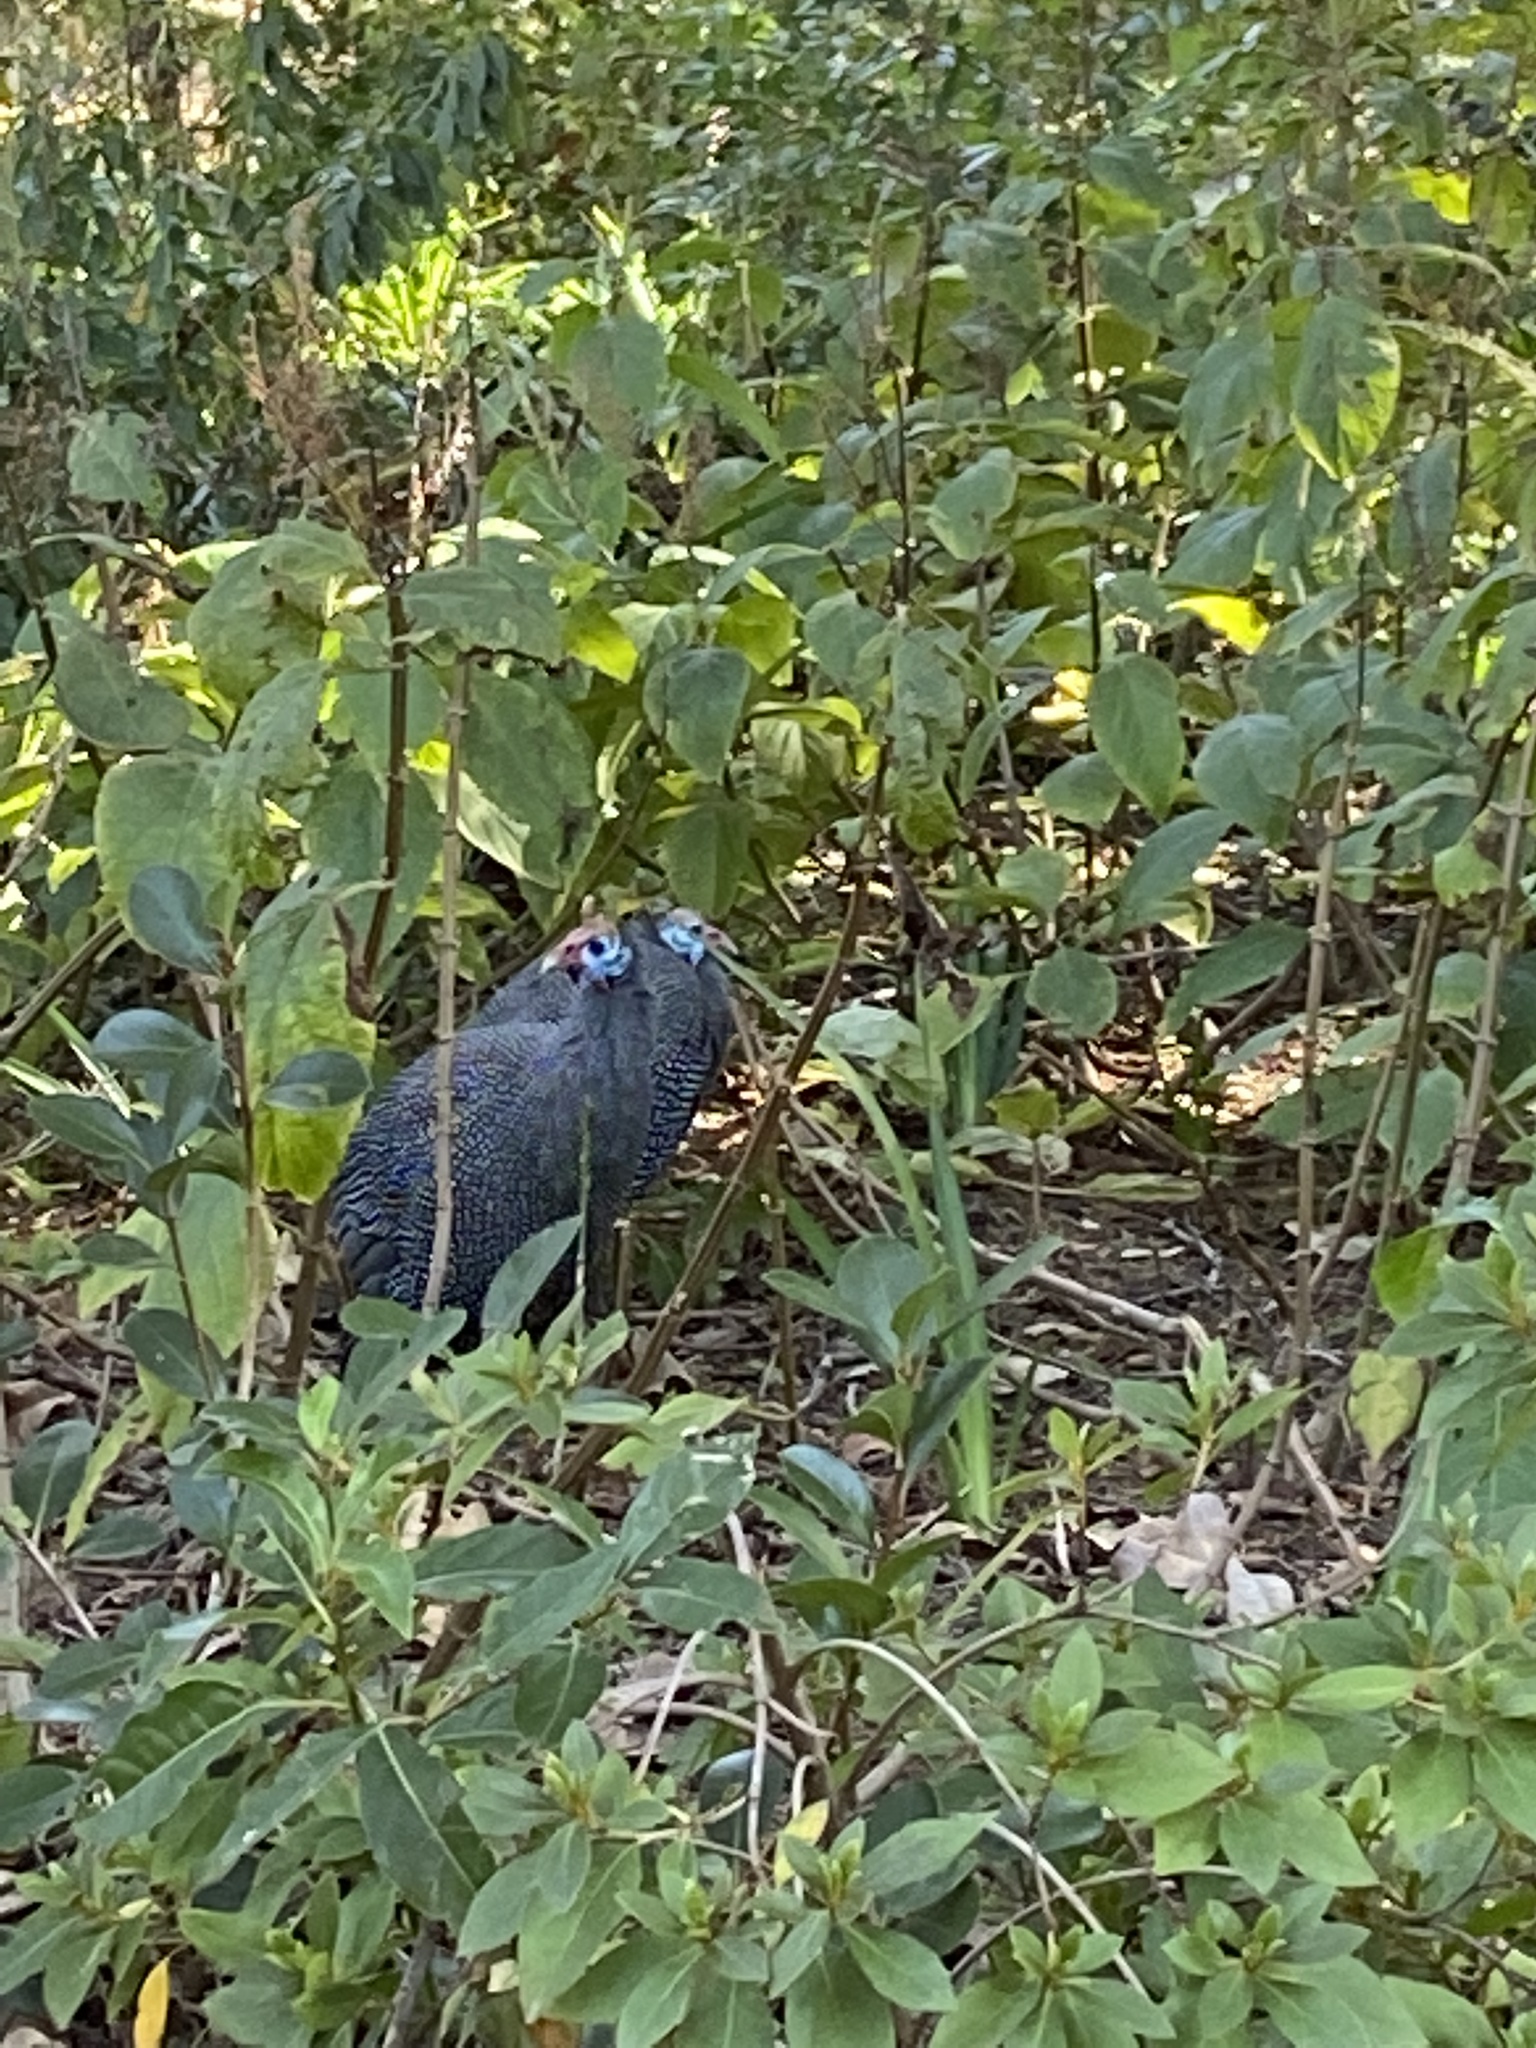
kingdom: Animalia
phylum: Chordata
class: Aves
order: Galliformes
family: Numididae
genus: Numida
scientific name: Numida meleagris
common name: Helmeted guineafowl
